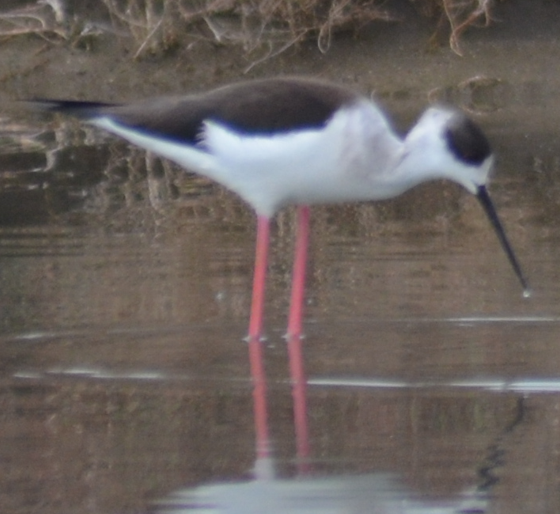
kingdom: Animalia
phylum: Chordata
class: Aves
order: Charadriiformes
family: Recurvirostridae
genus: Himantopus
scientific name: Himantopus himantopus
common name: Black-winged stilt
